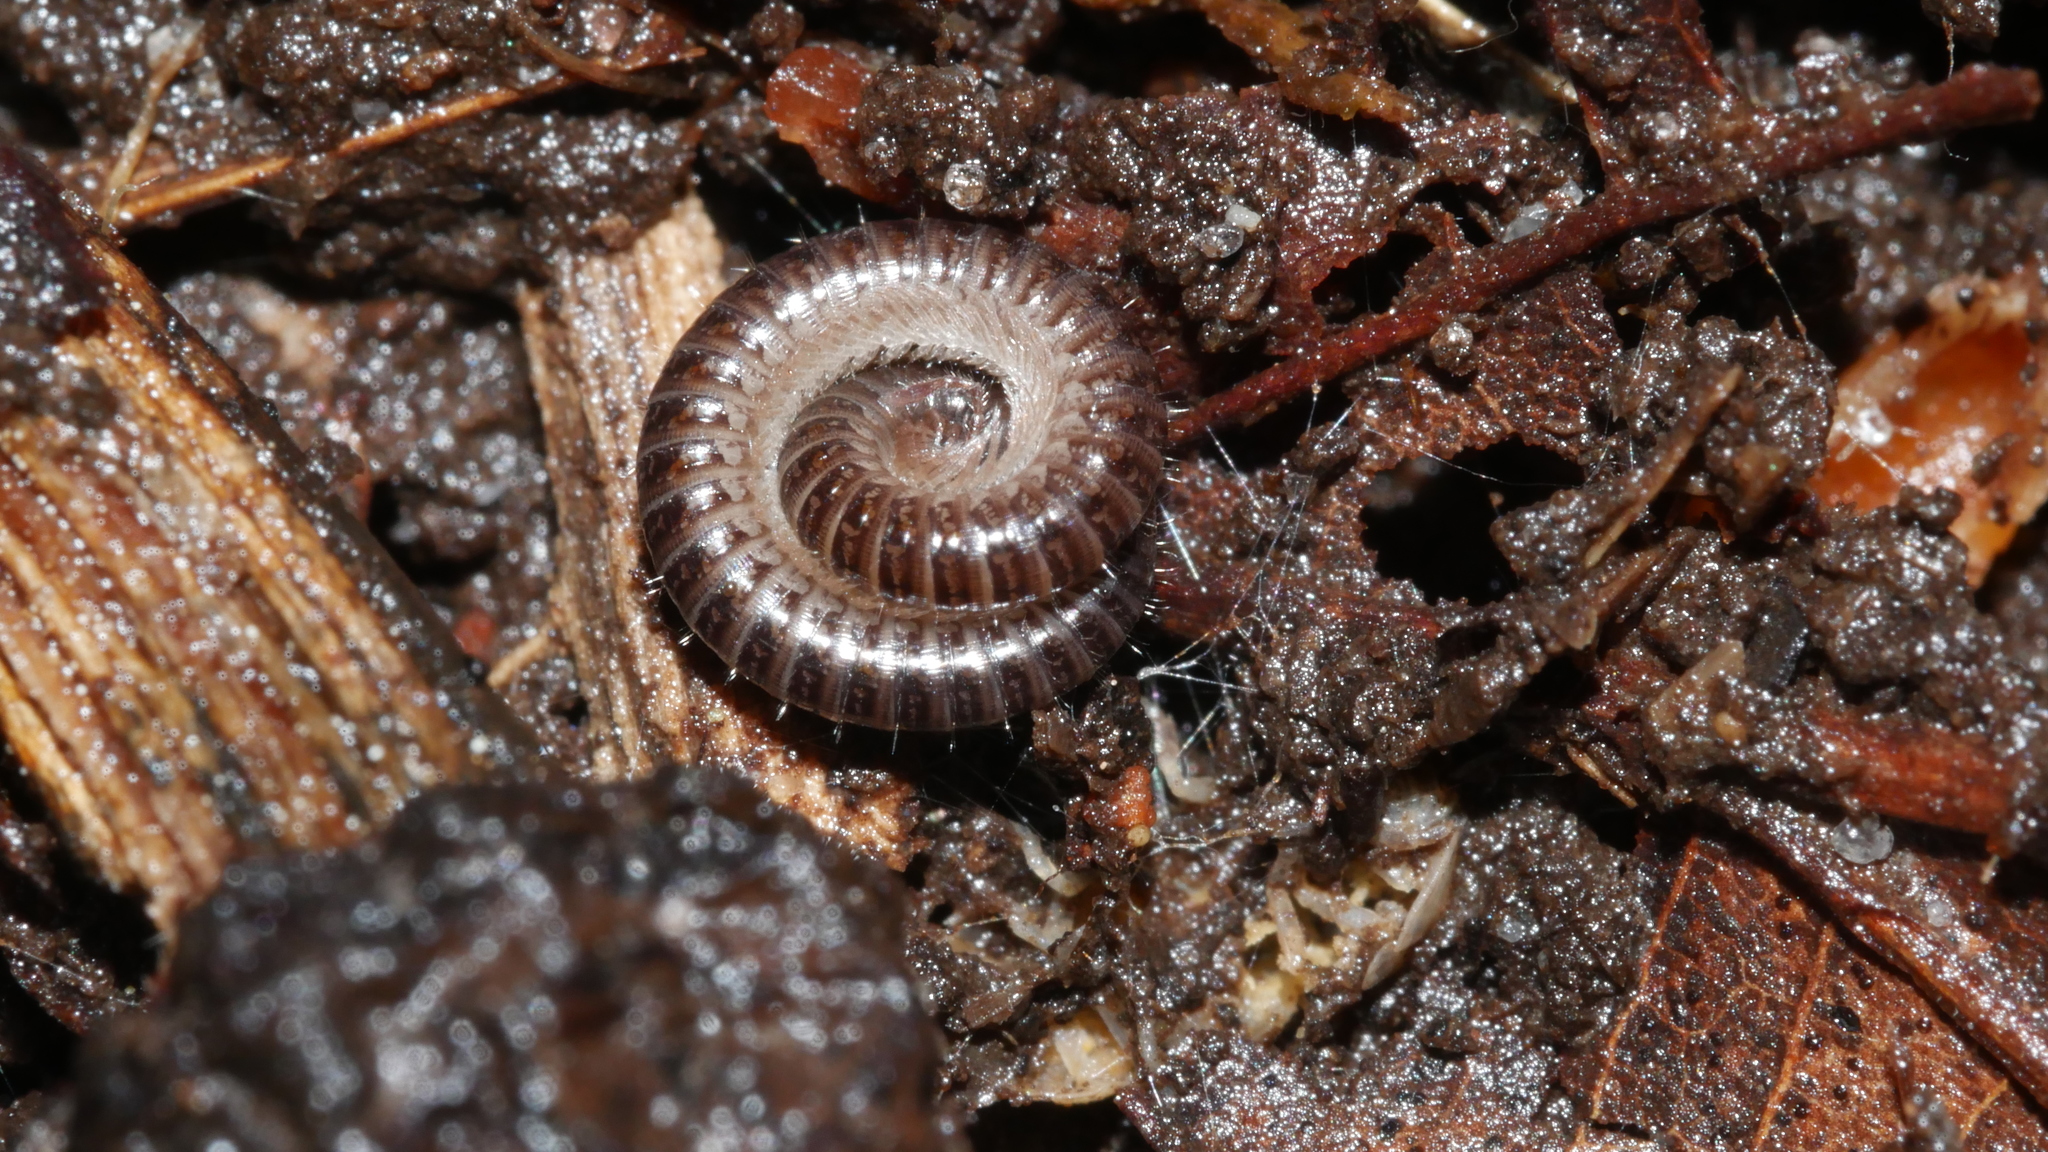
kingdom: Animalia
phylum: Arthropoda
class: Diplopoda
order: Julida
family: Julidae
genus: Ophyiulus
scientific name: Ophyiulus pilosus
